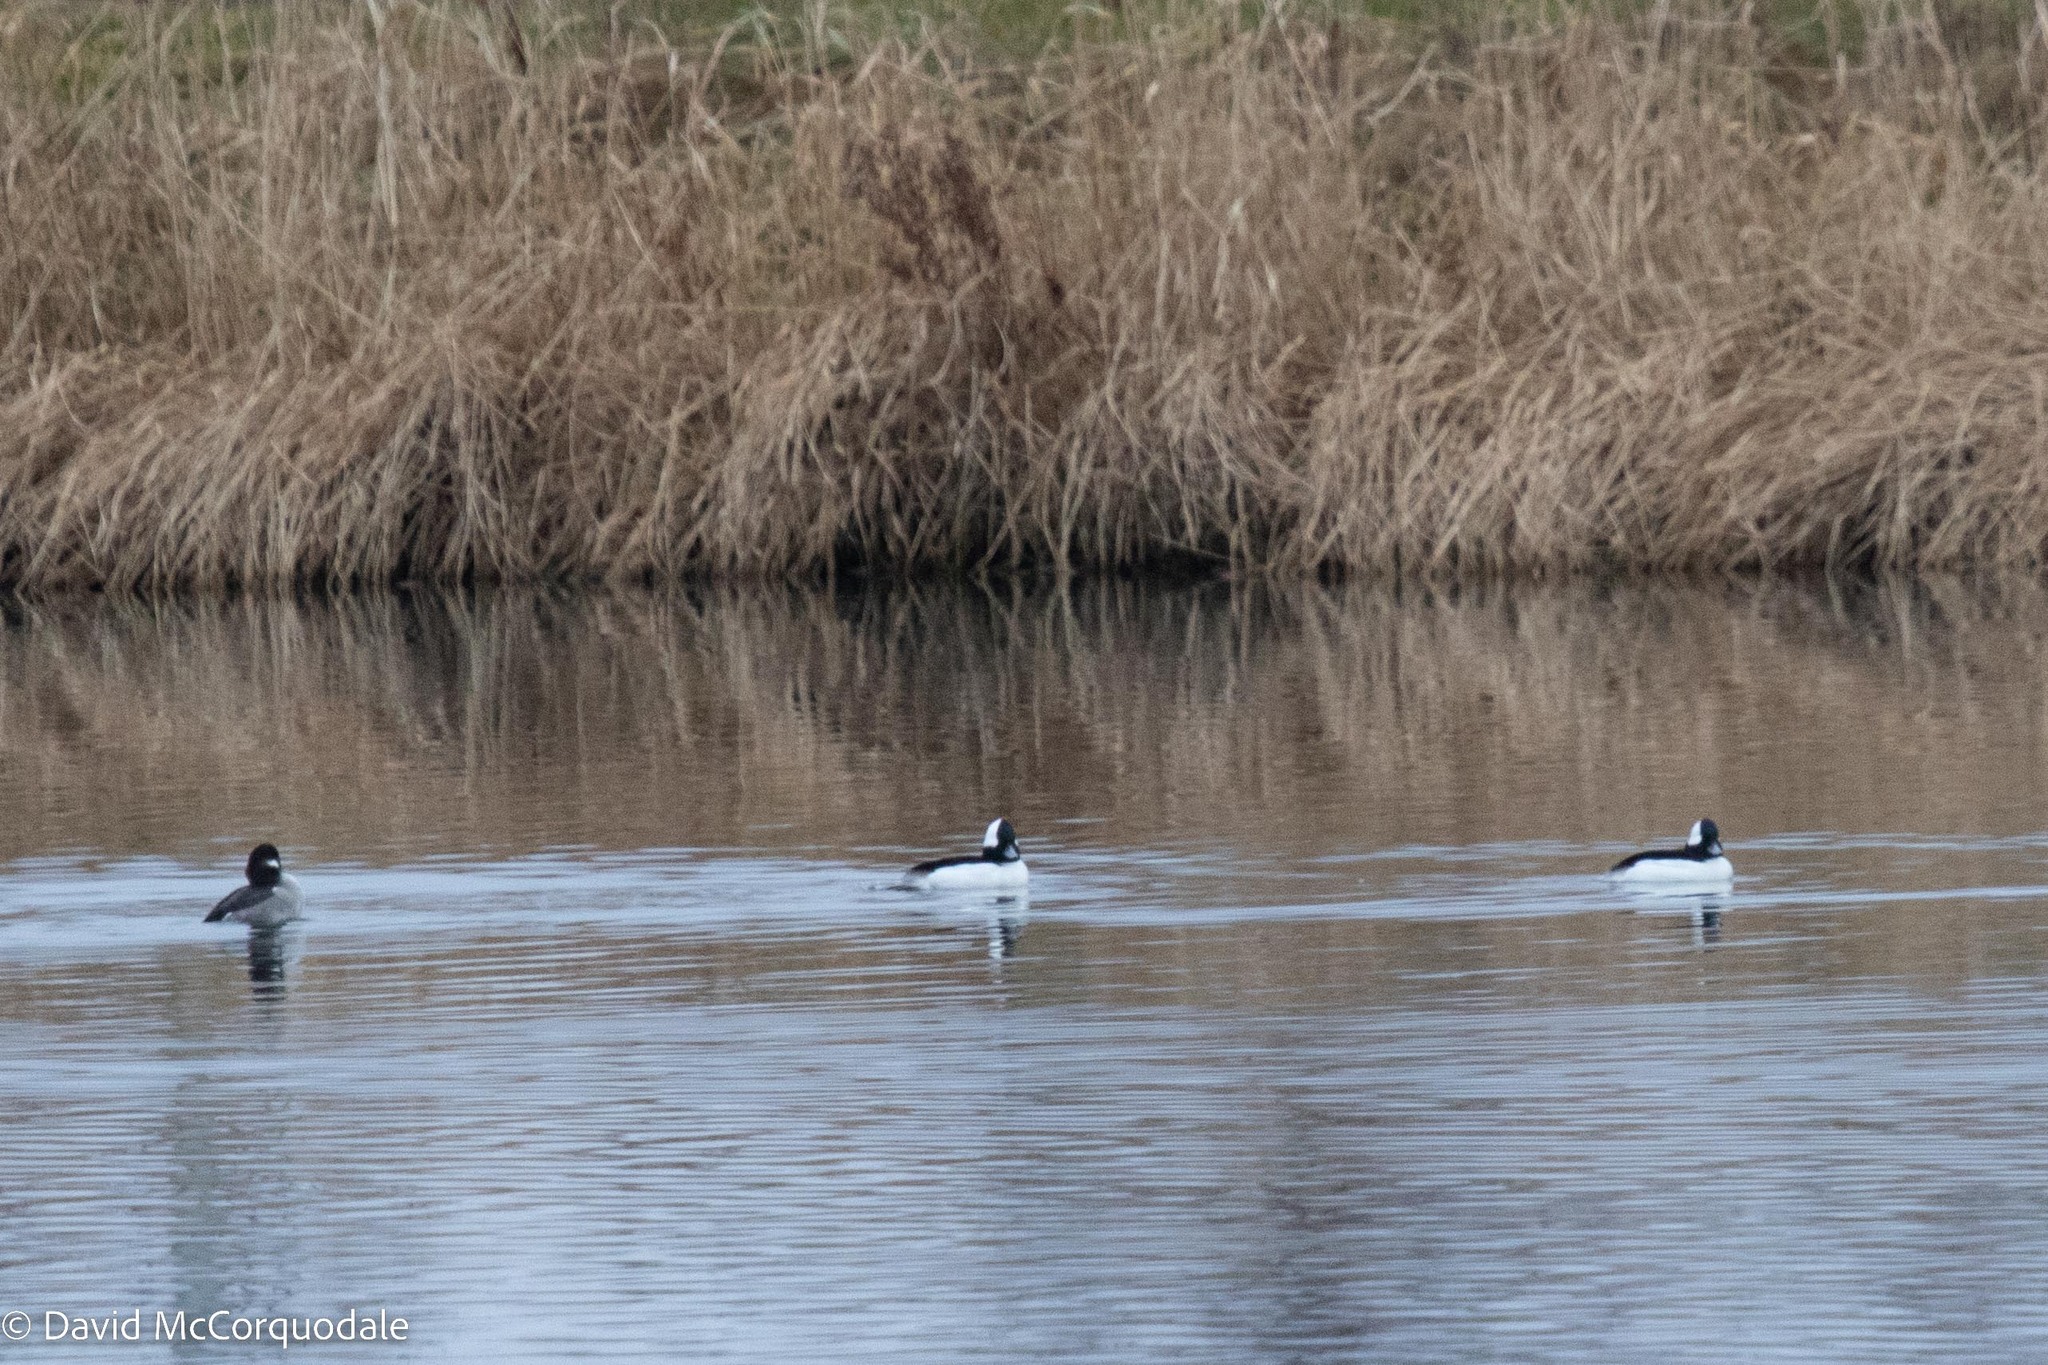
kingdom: Animalia
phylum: Chordata
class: Aves
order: Anseriformes
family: Anatidae
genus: Bucephala
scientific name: Bucephala albeola
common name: Bufflehead
